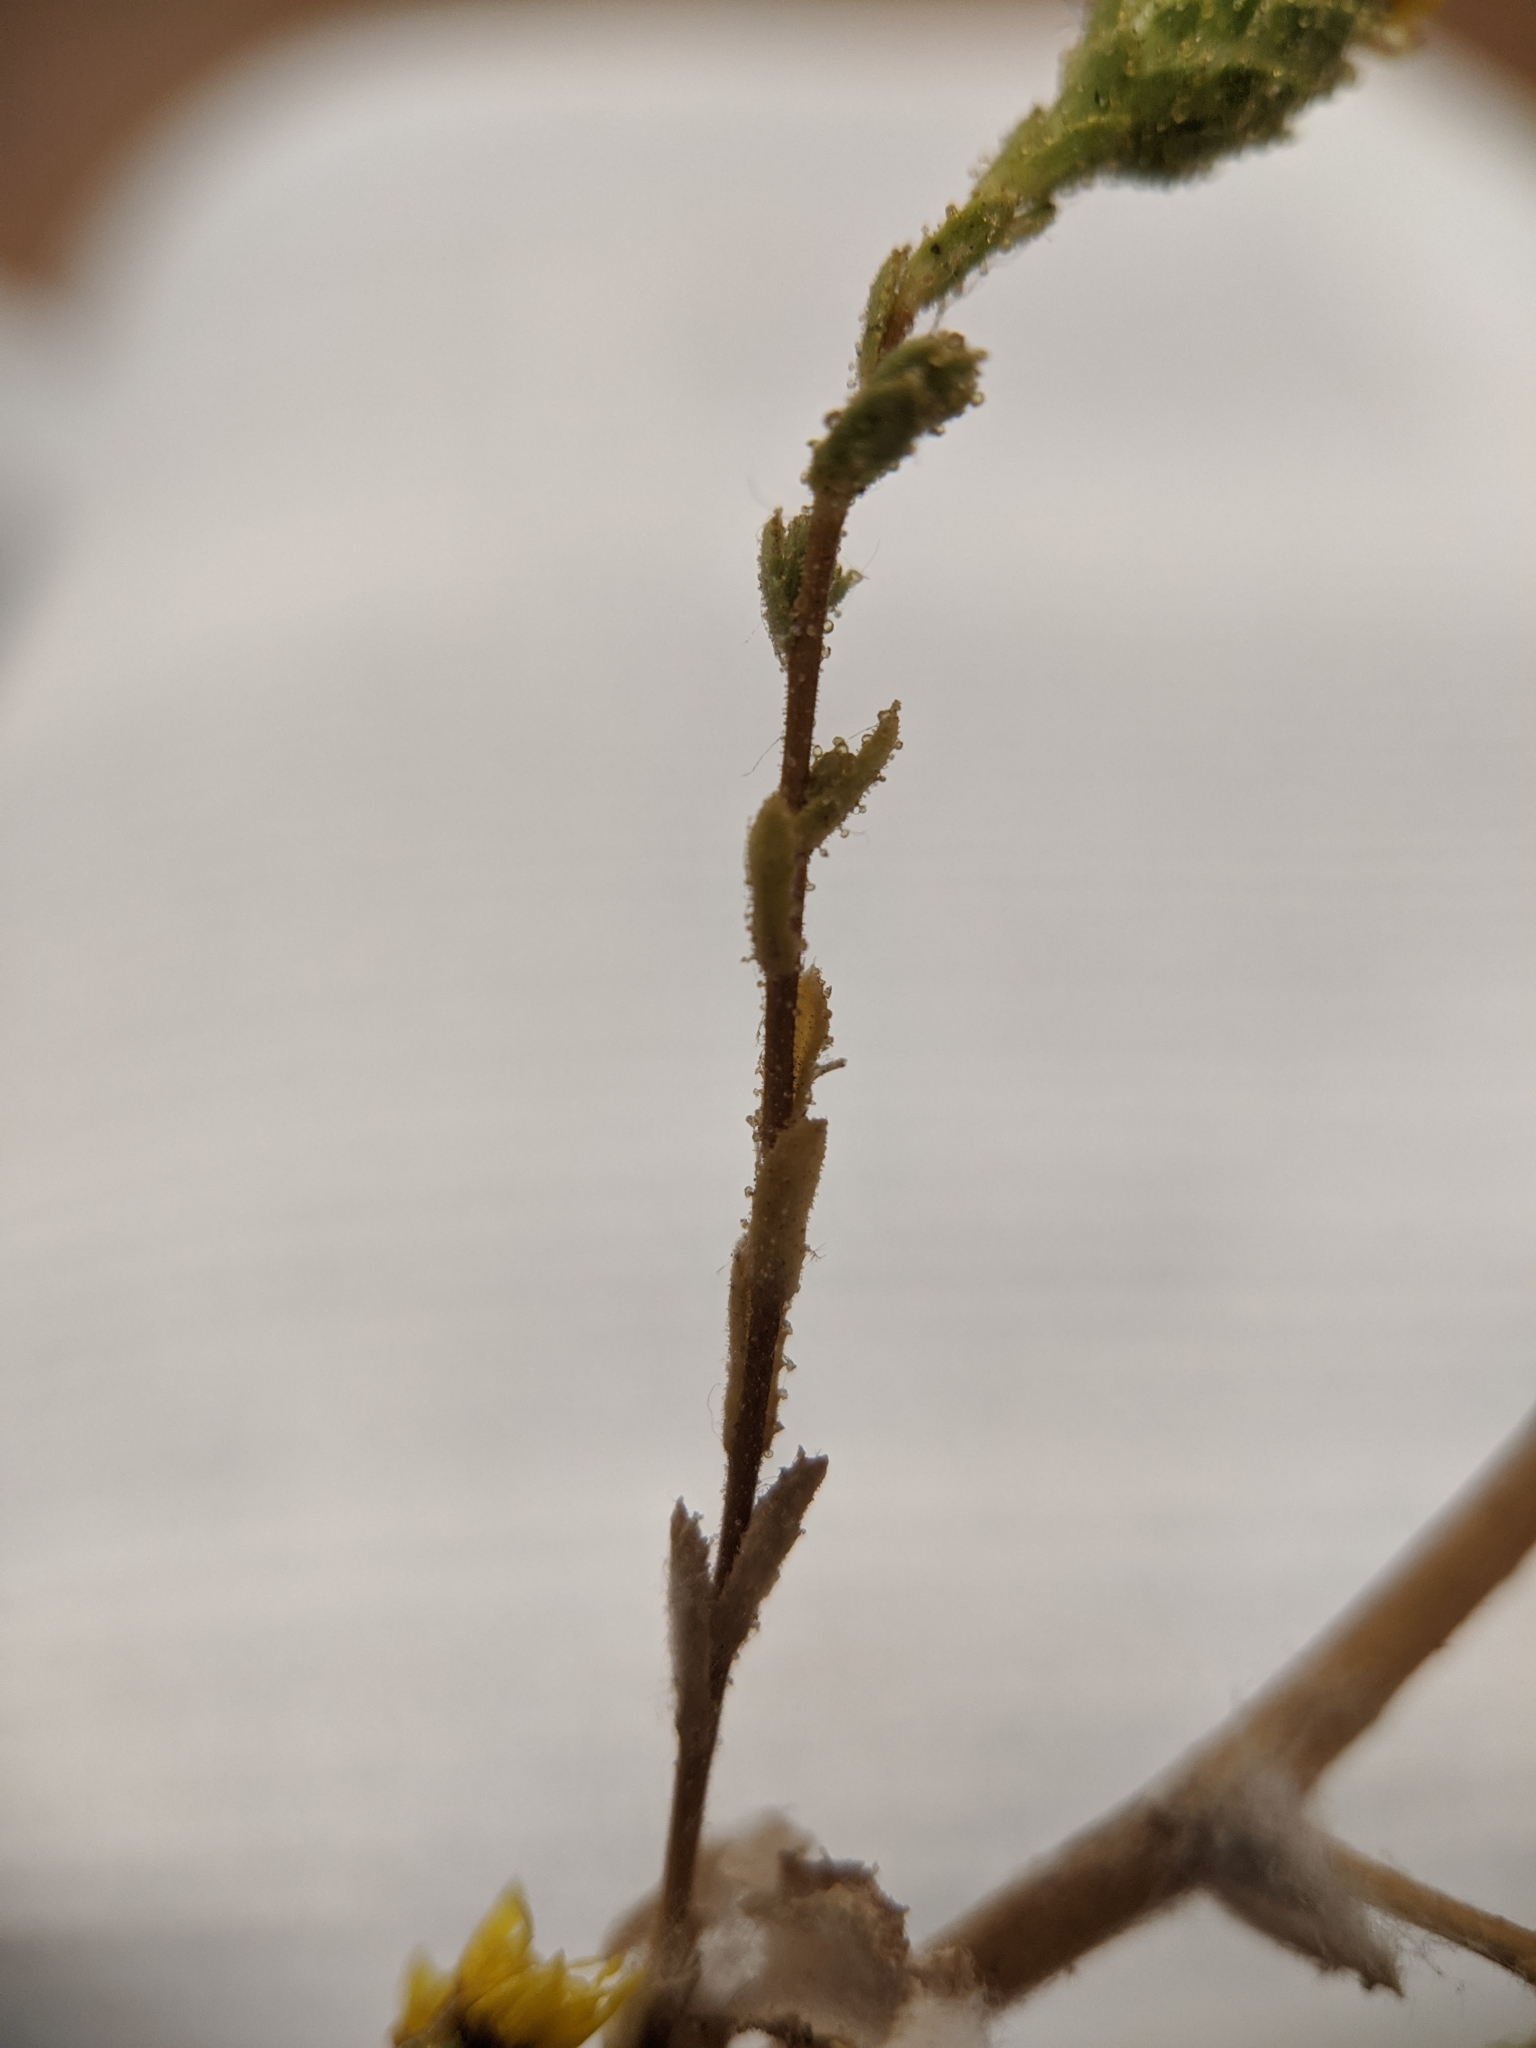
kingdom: Plantae
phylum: Tracheophyta
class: Magnoliopsida
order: Asterales
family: Asteraceae
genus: Lessingia
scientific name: Lessingia pectinata
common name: Valley lessingia
